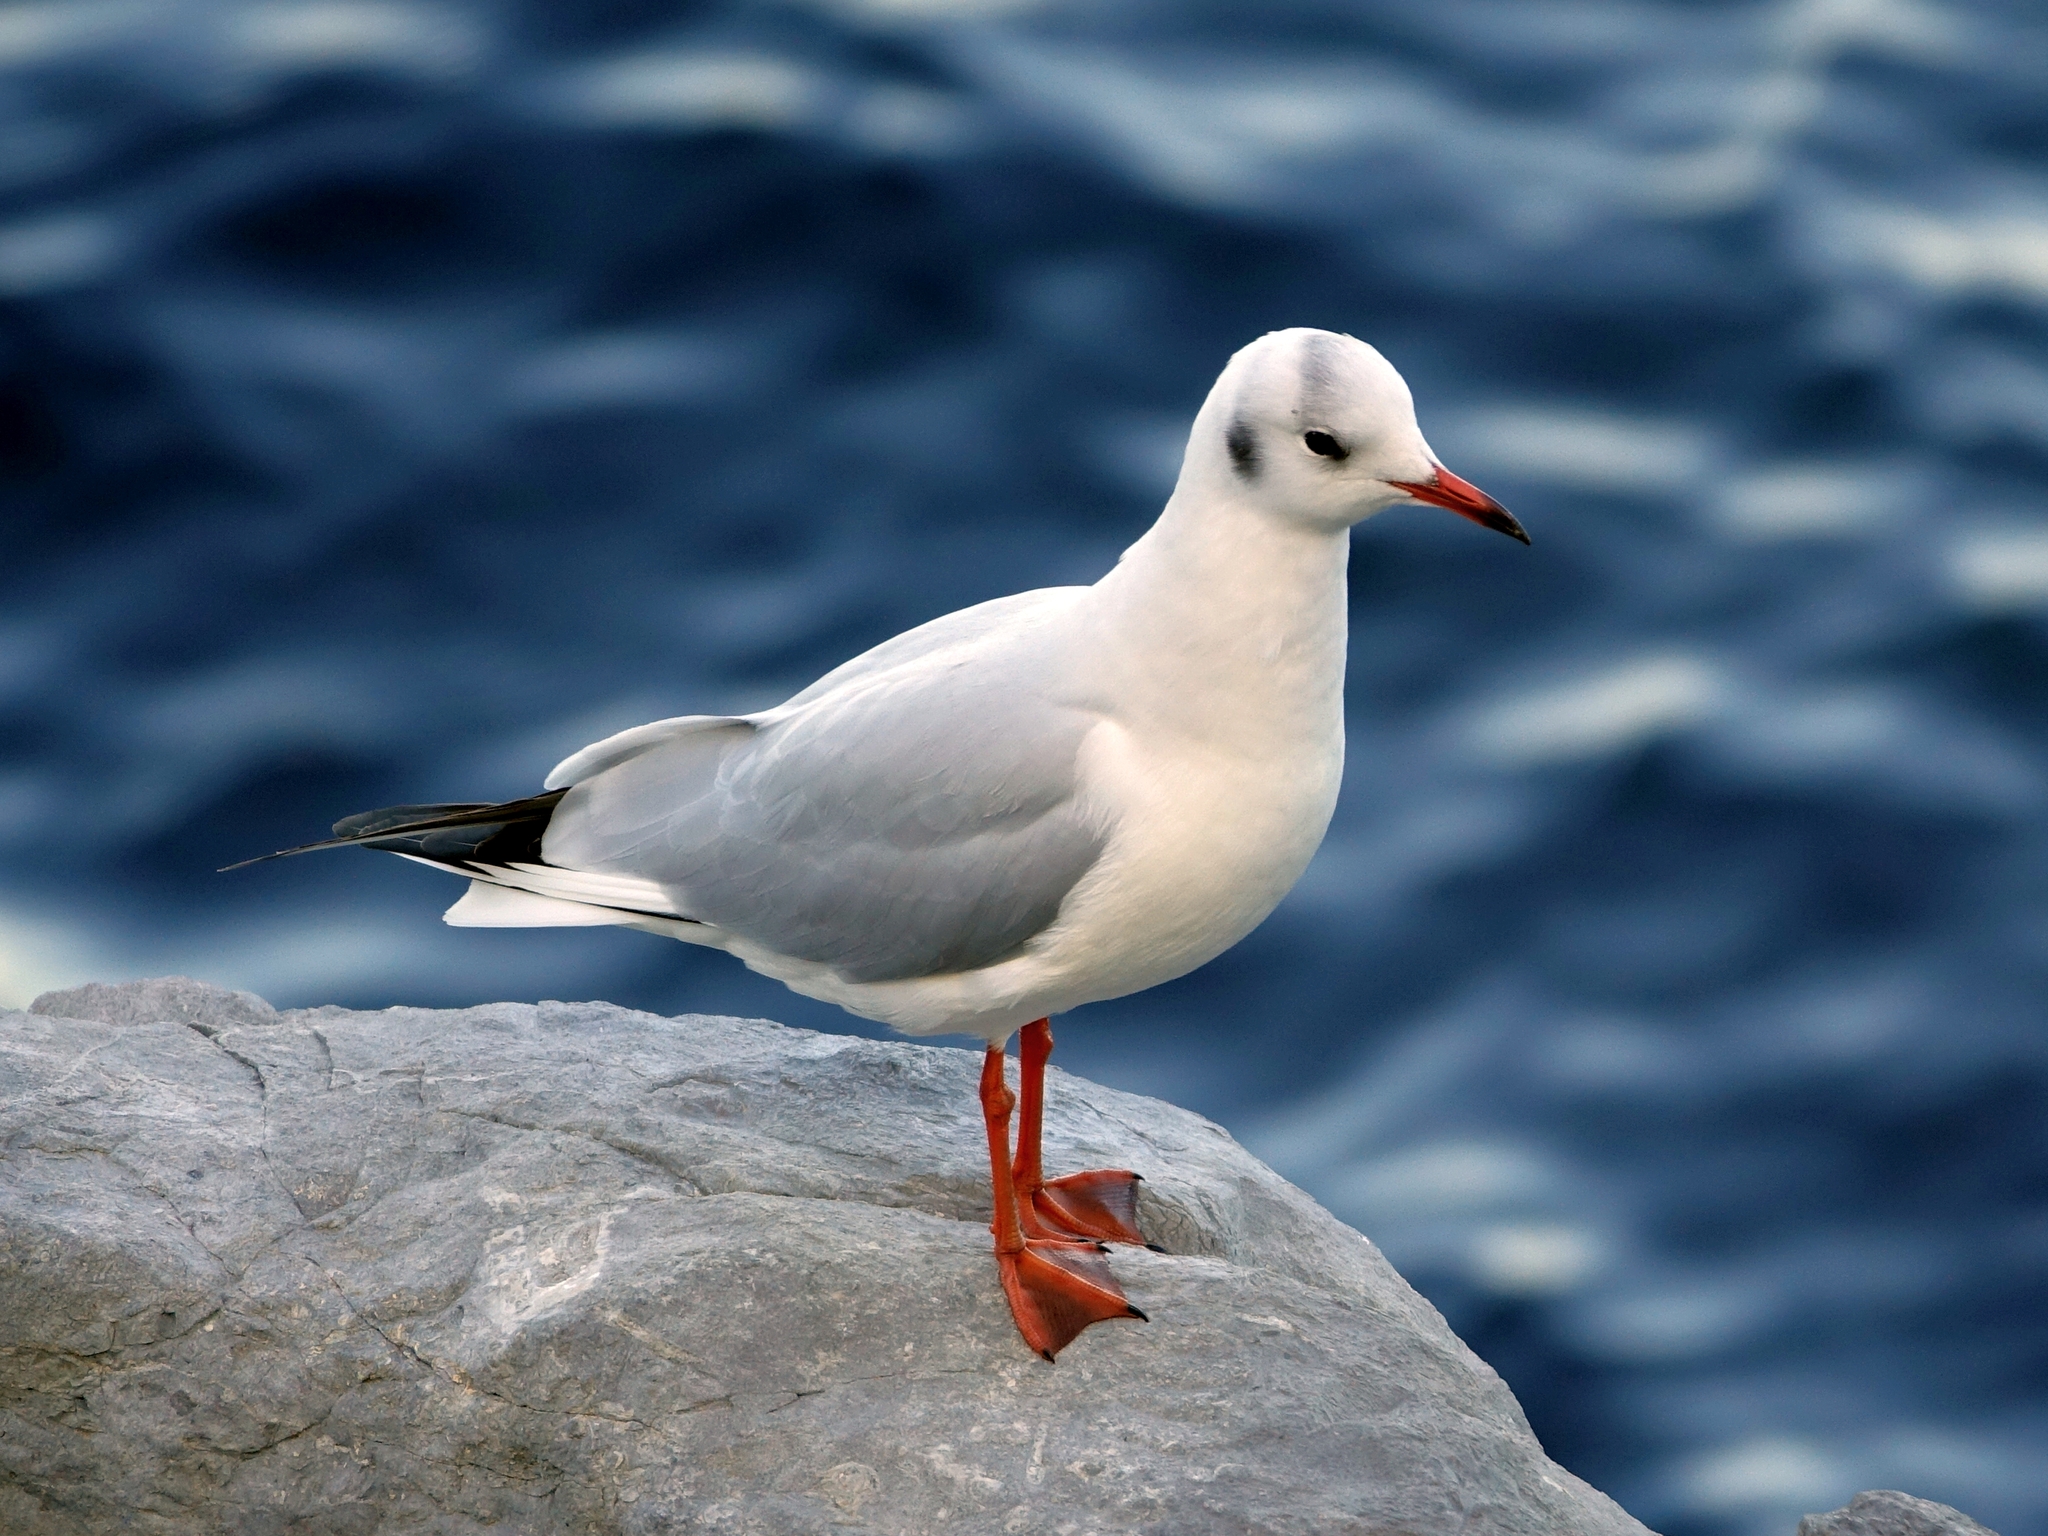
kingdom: Animalia
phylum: Chordata
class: Aves
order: Charadriiformes
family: Laridae
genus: Chroicocephalus
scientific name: Chroicocephalus ridibundus
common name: Black-headed gull
